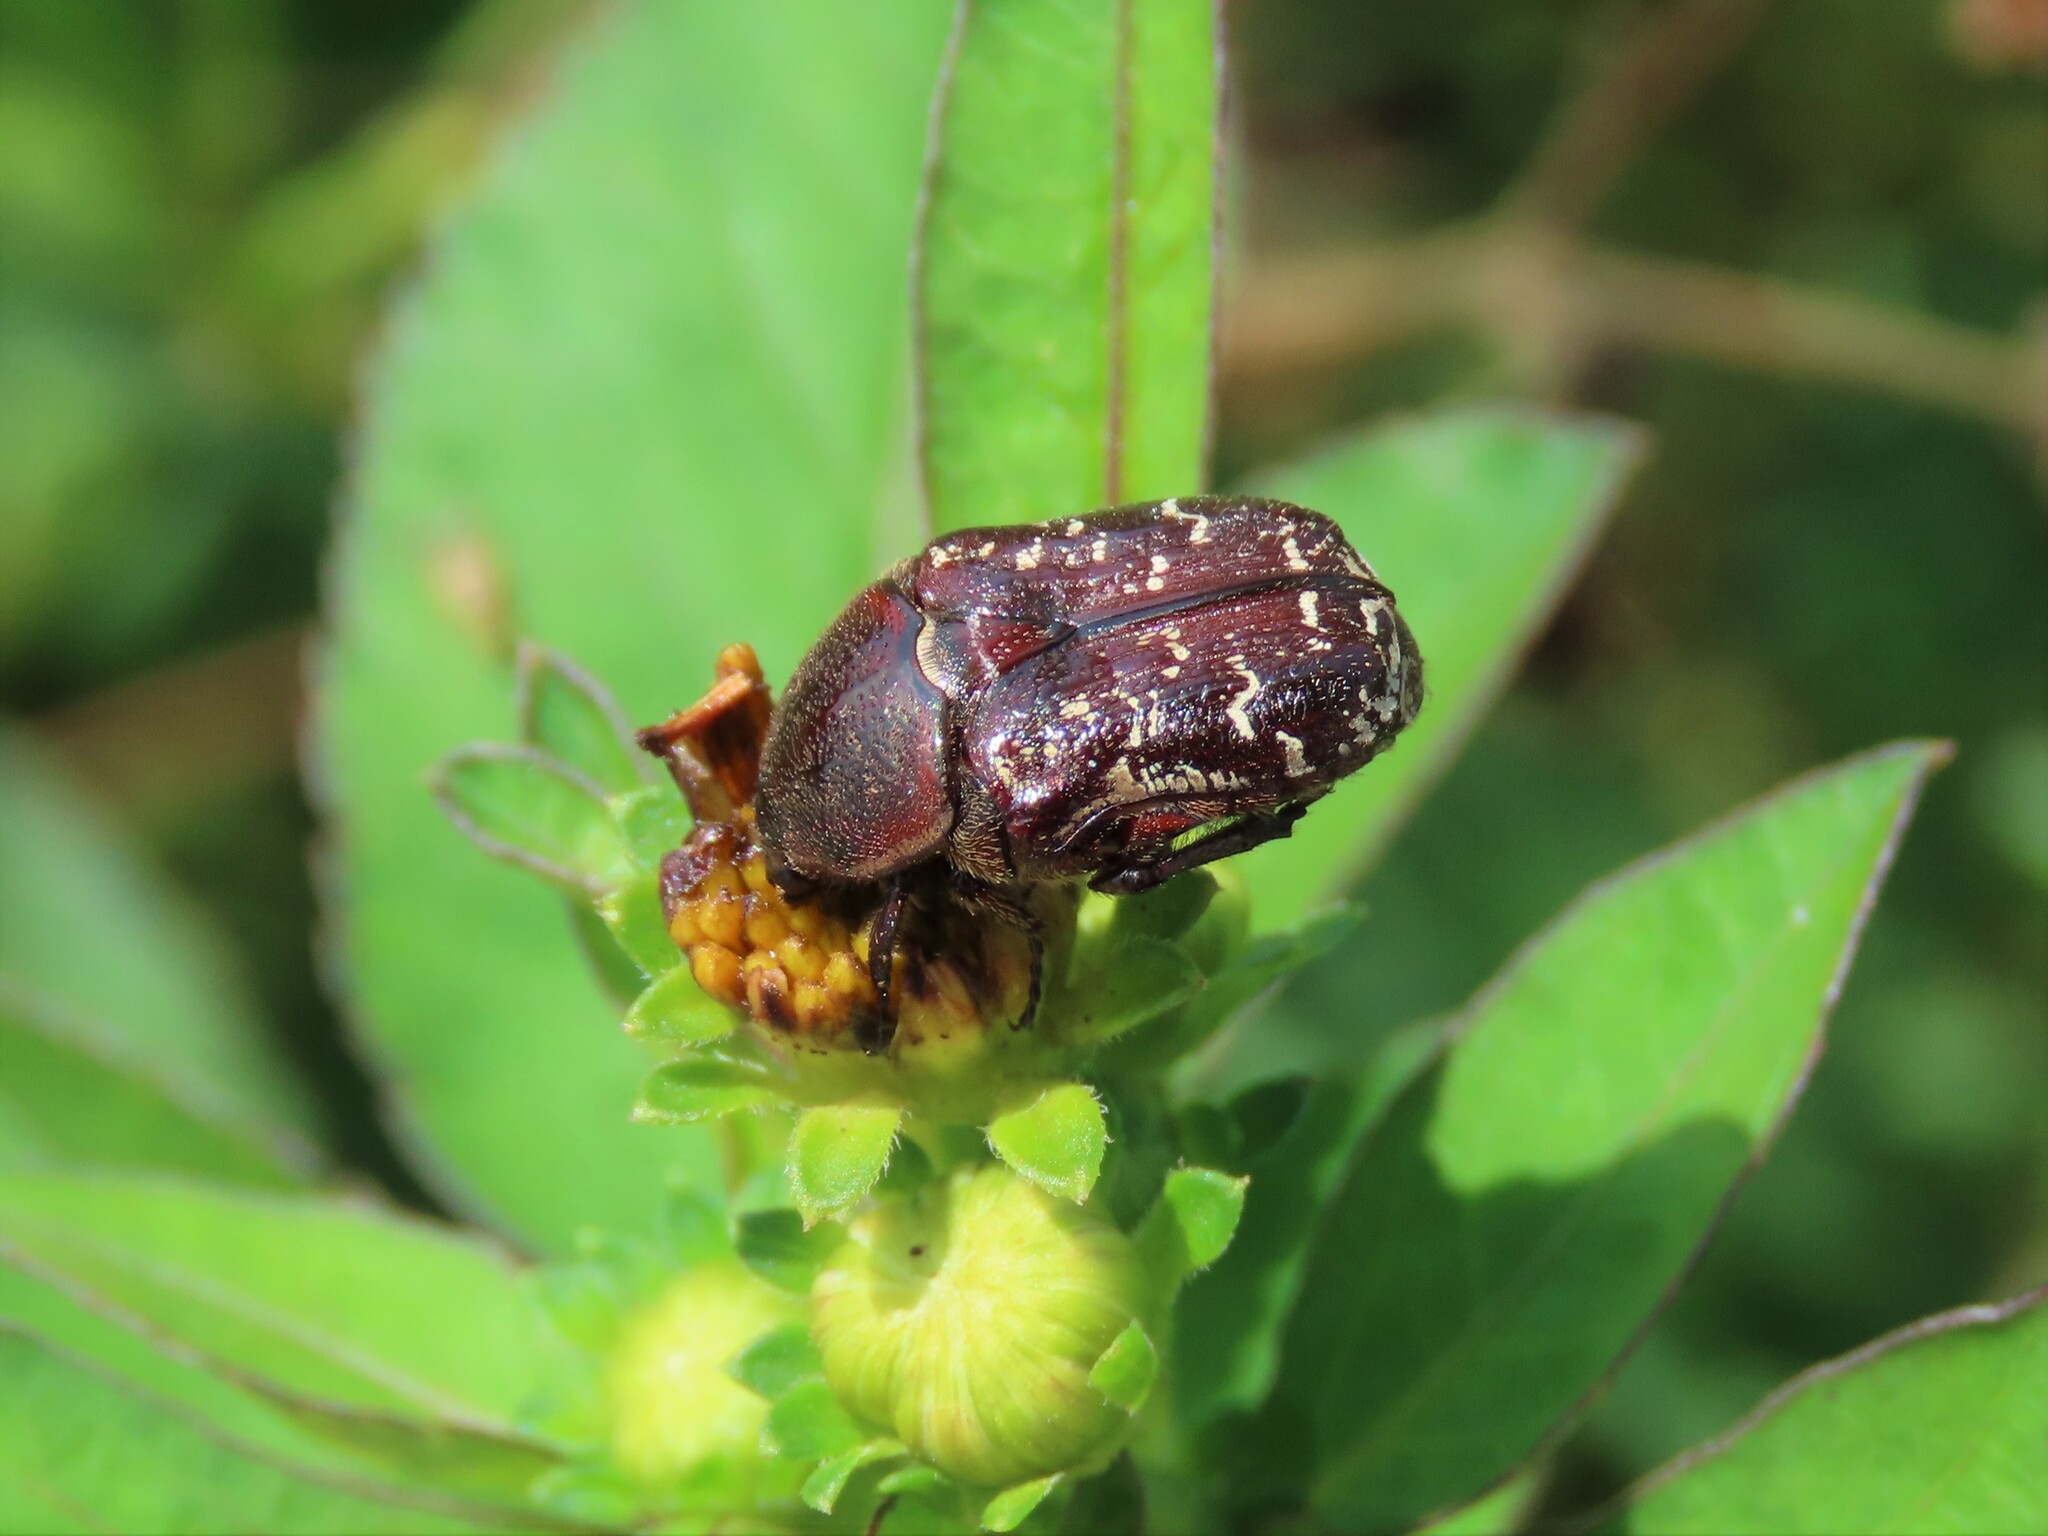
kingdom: Animalia
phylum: Arthropoda
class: Insecta
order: Coleoptera
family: Scarabaeidae
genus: Euphoria
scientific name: Euphoria sepulcralis
